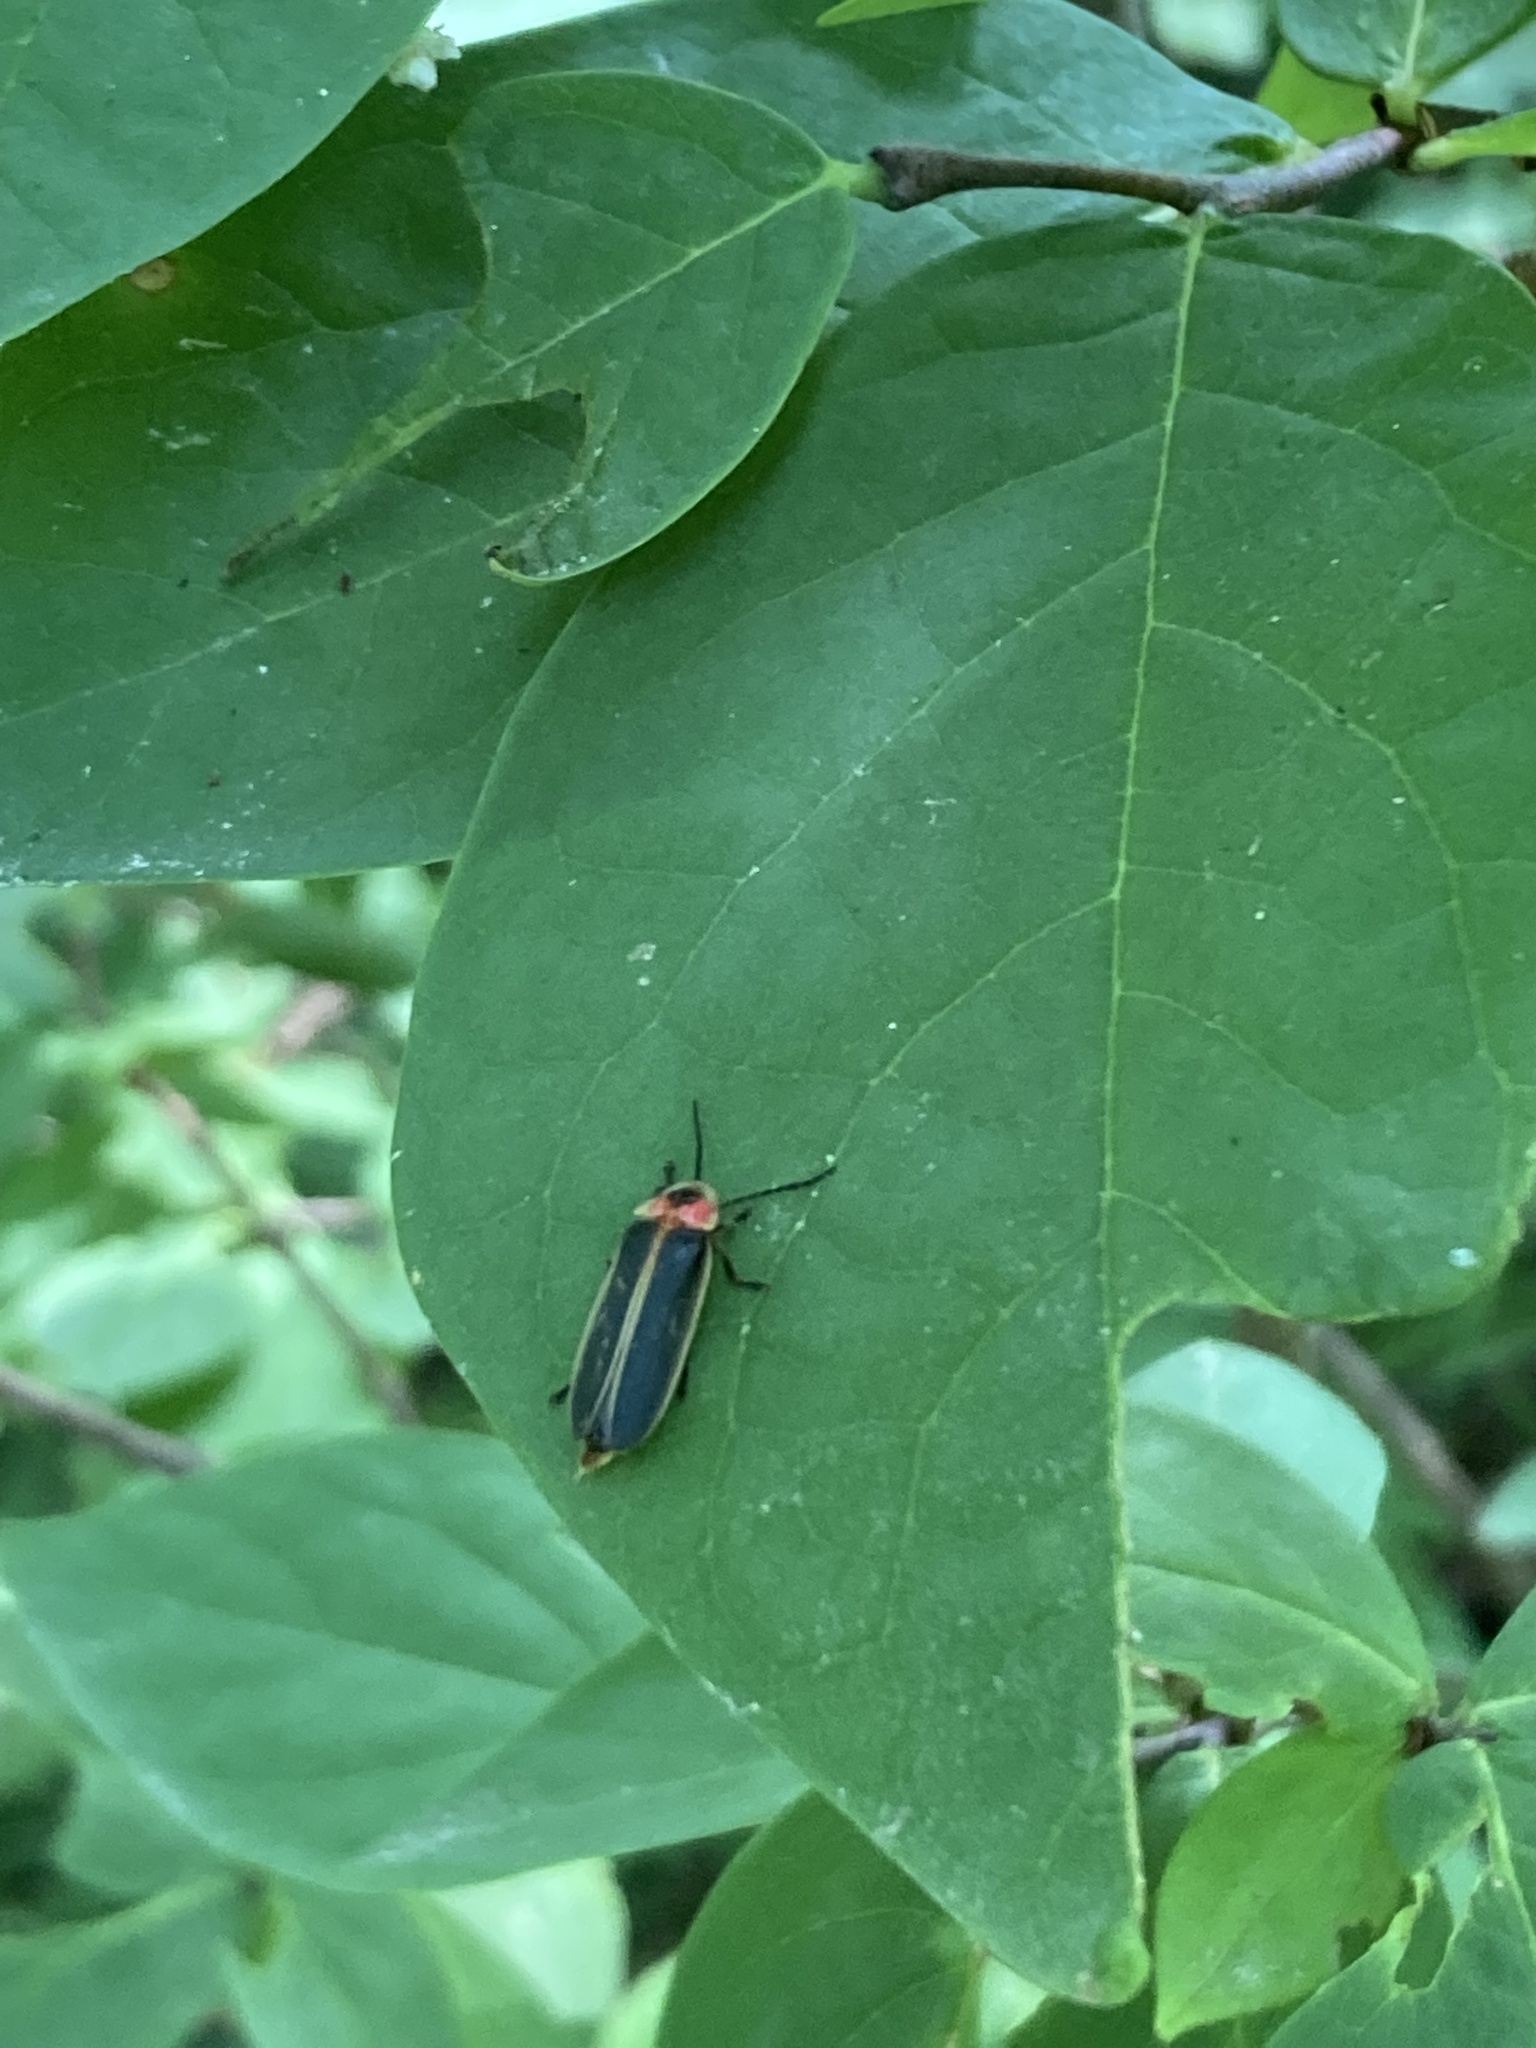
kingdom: Animalia
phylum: Arthropoda
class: Insecta
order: Coleoptera
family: Lampyridae
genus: Photinus
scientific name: Photinus pyralis
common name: Big dipper firefly
